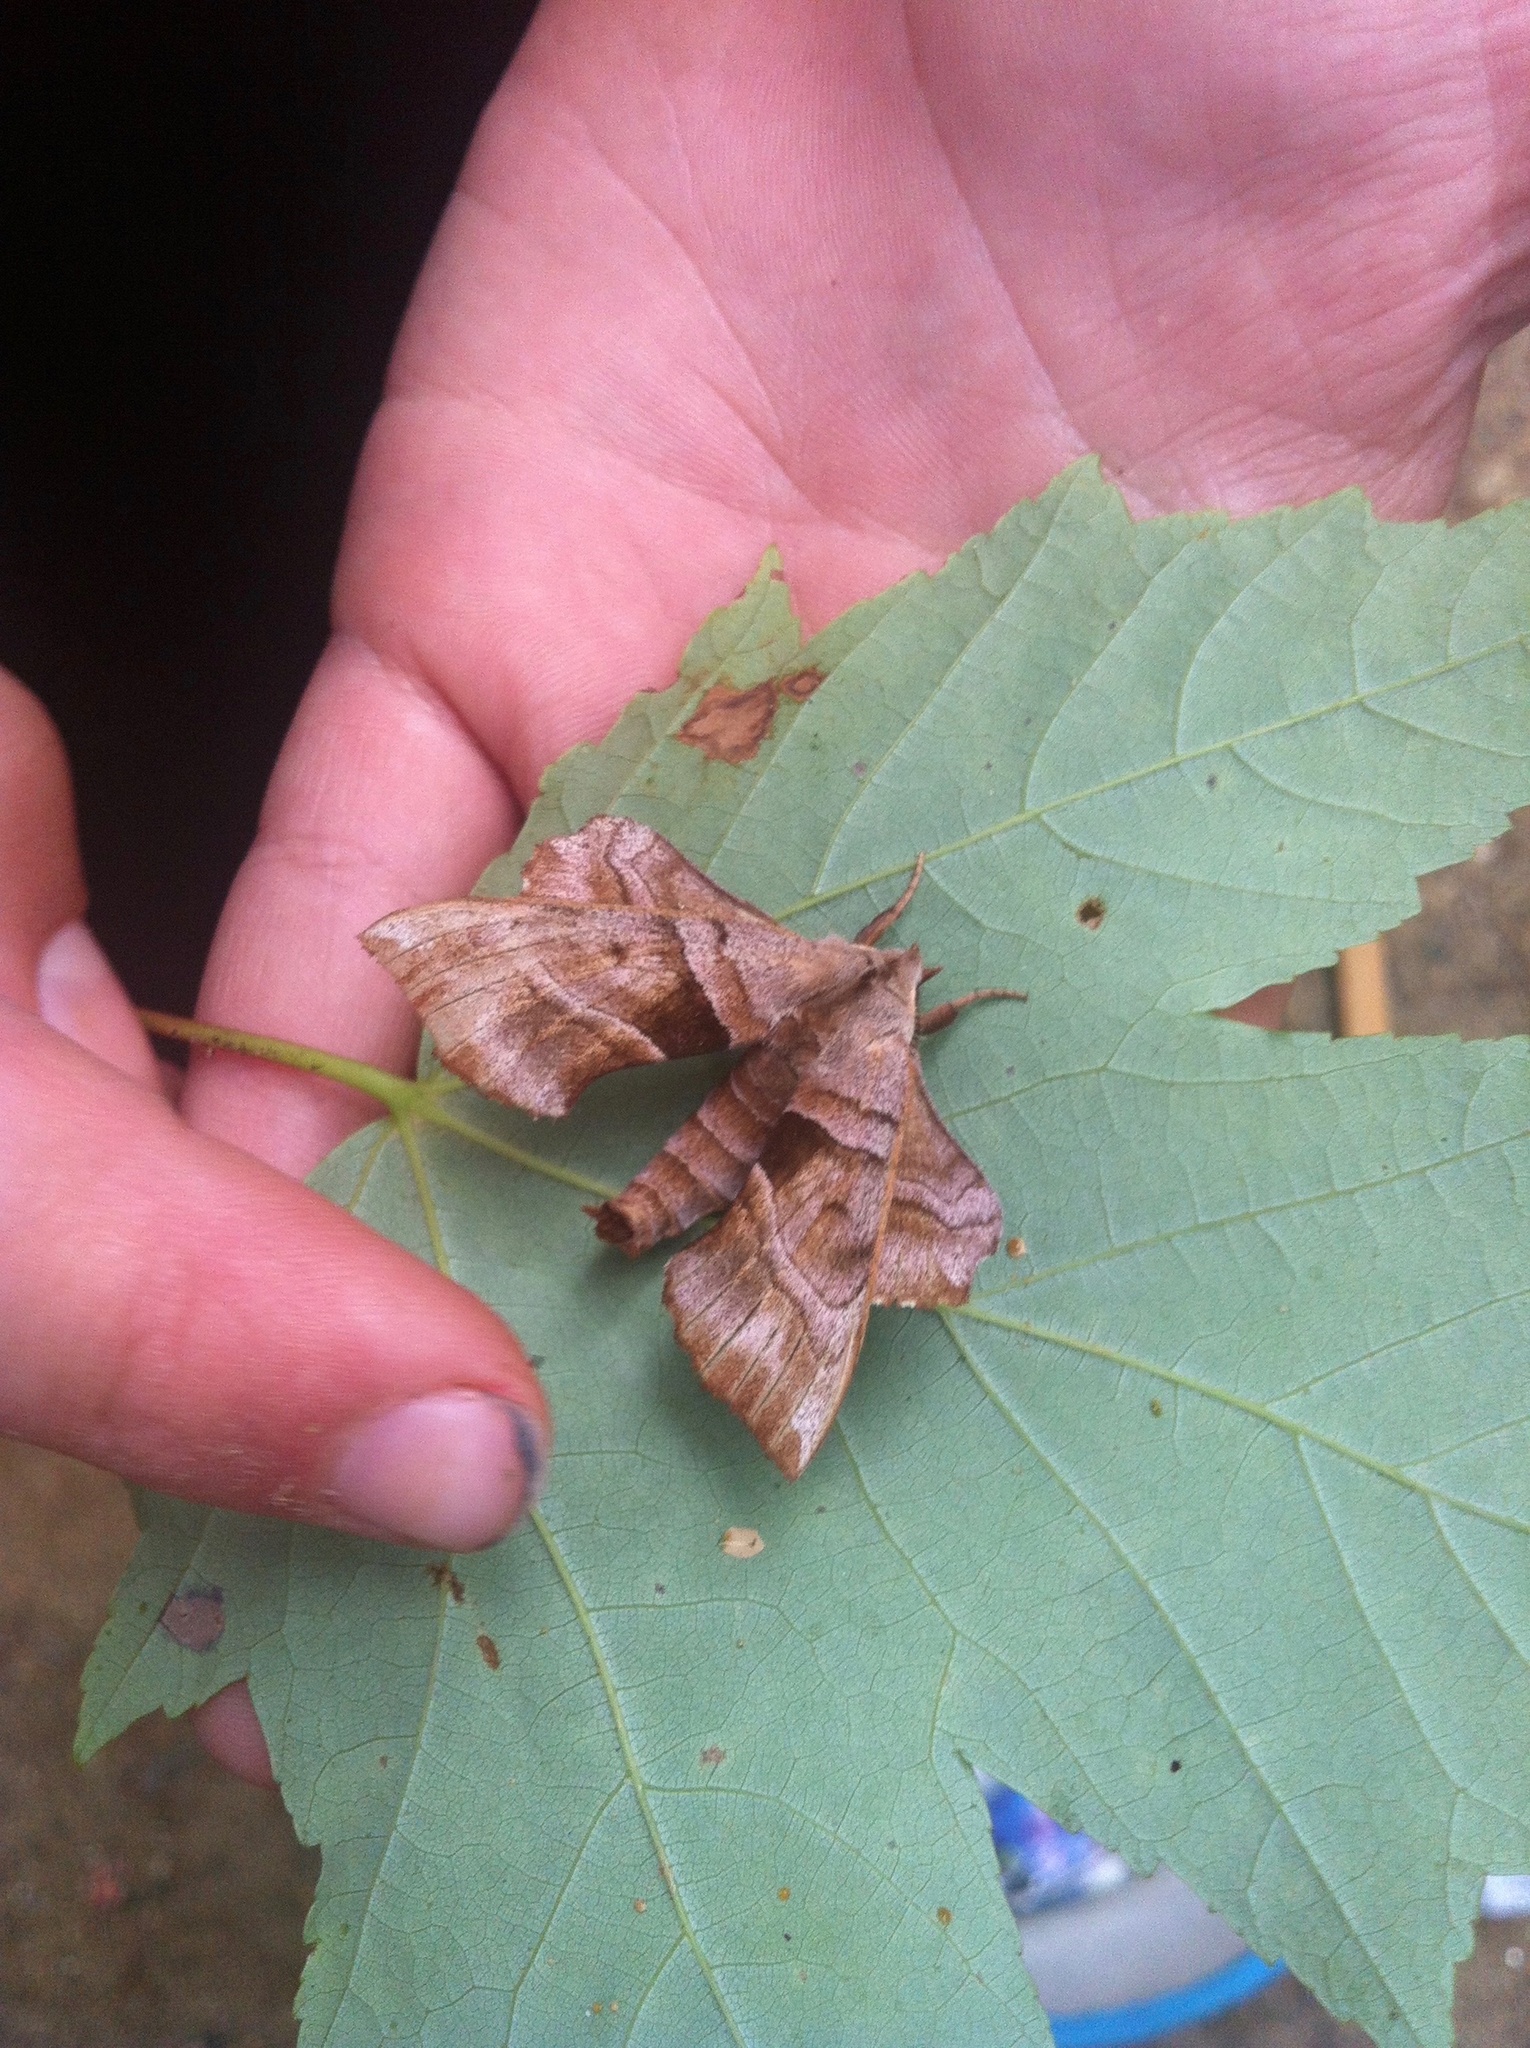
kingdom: Animalia
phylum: Arthropoda
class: Insecta
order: Lepidoptera
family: Sphingidae
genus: Amorpha
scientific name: Amorpha juglandis
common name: Walnut sphinx
